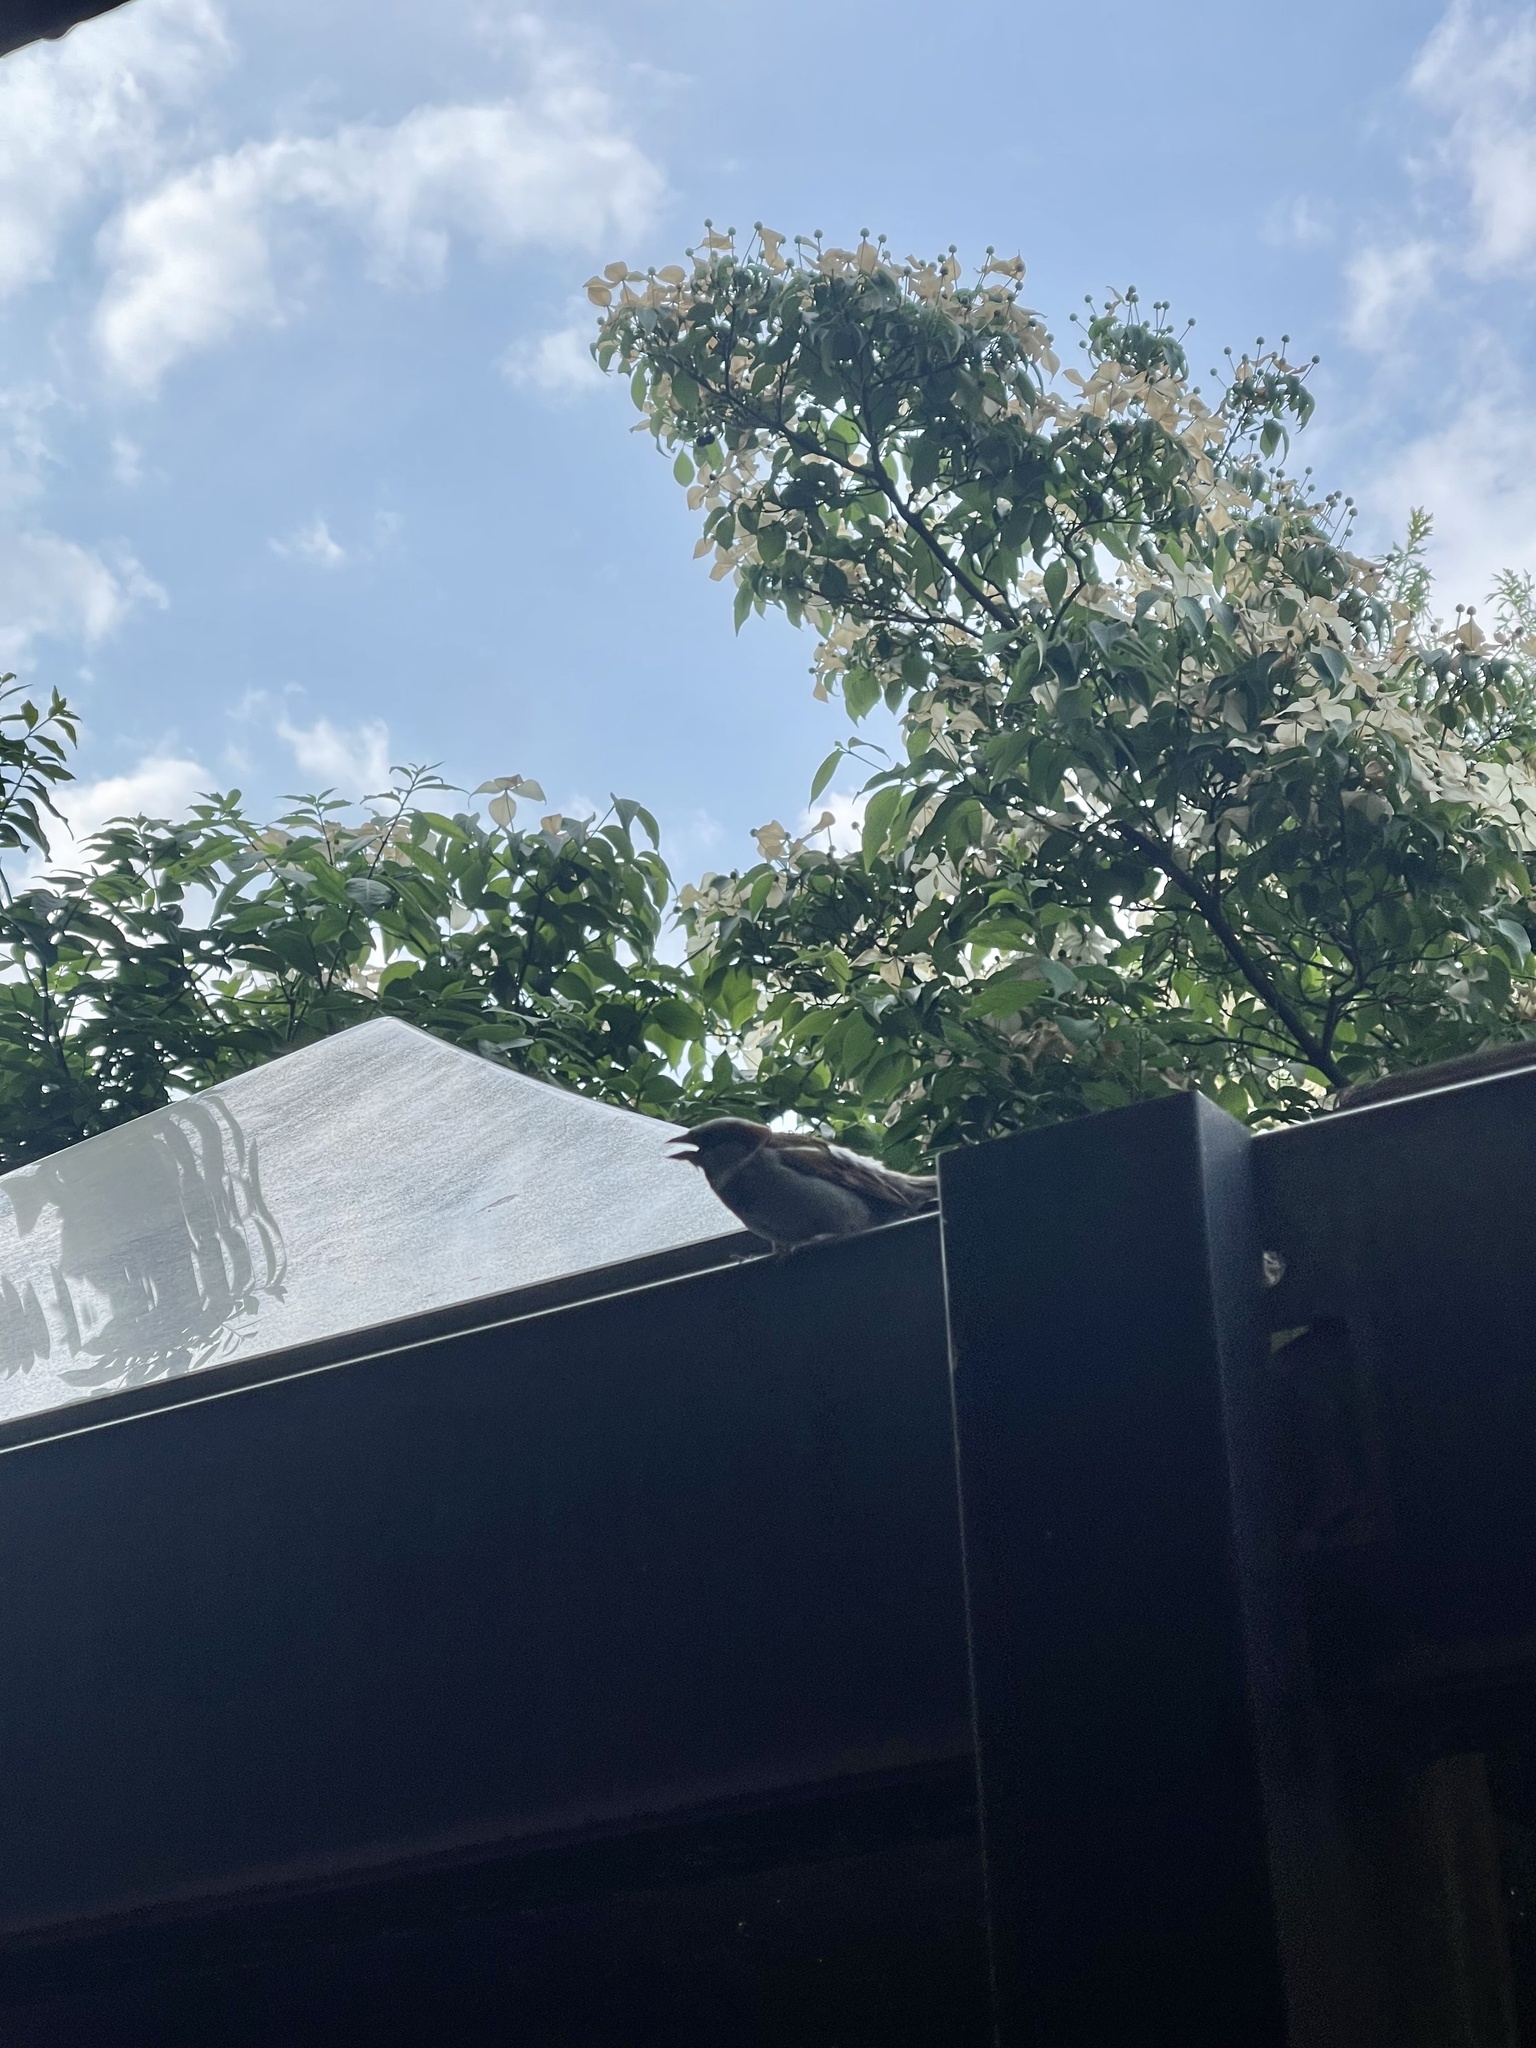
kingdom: Animalia
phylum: Chordata
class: Aves
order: Passeriformes
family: Passeridae
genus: Passer
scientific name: Passer domesticus
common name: House sparrow
